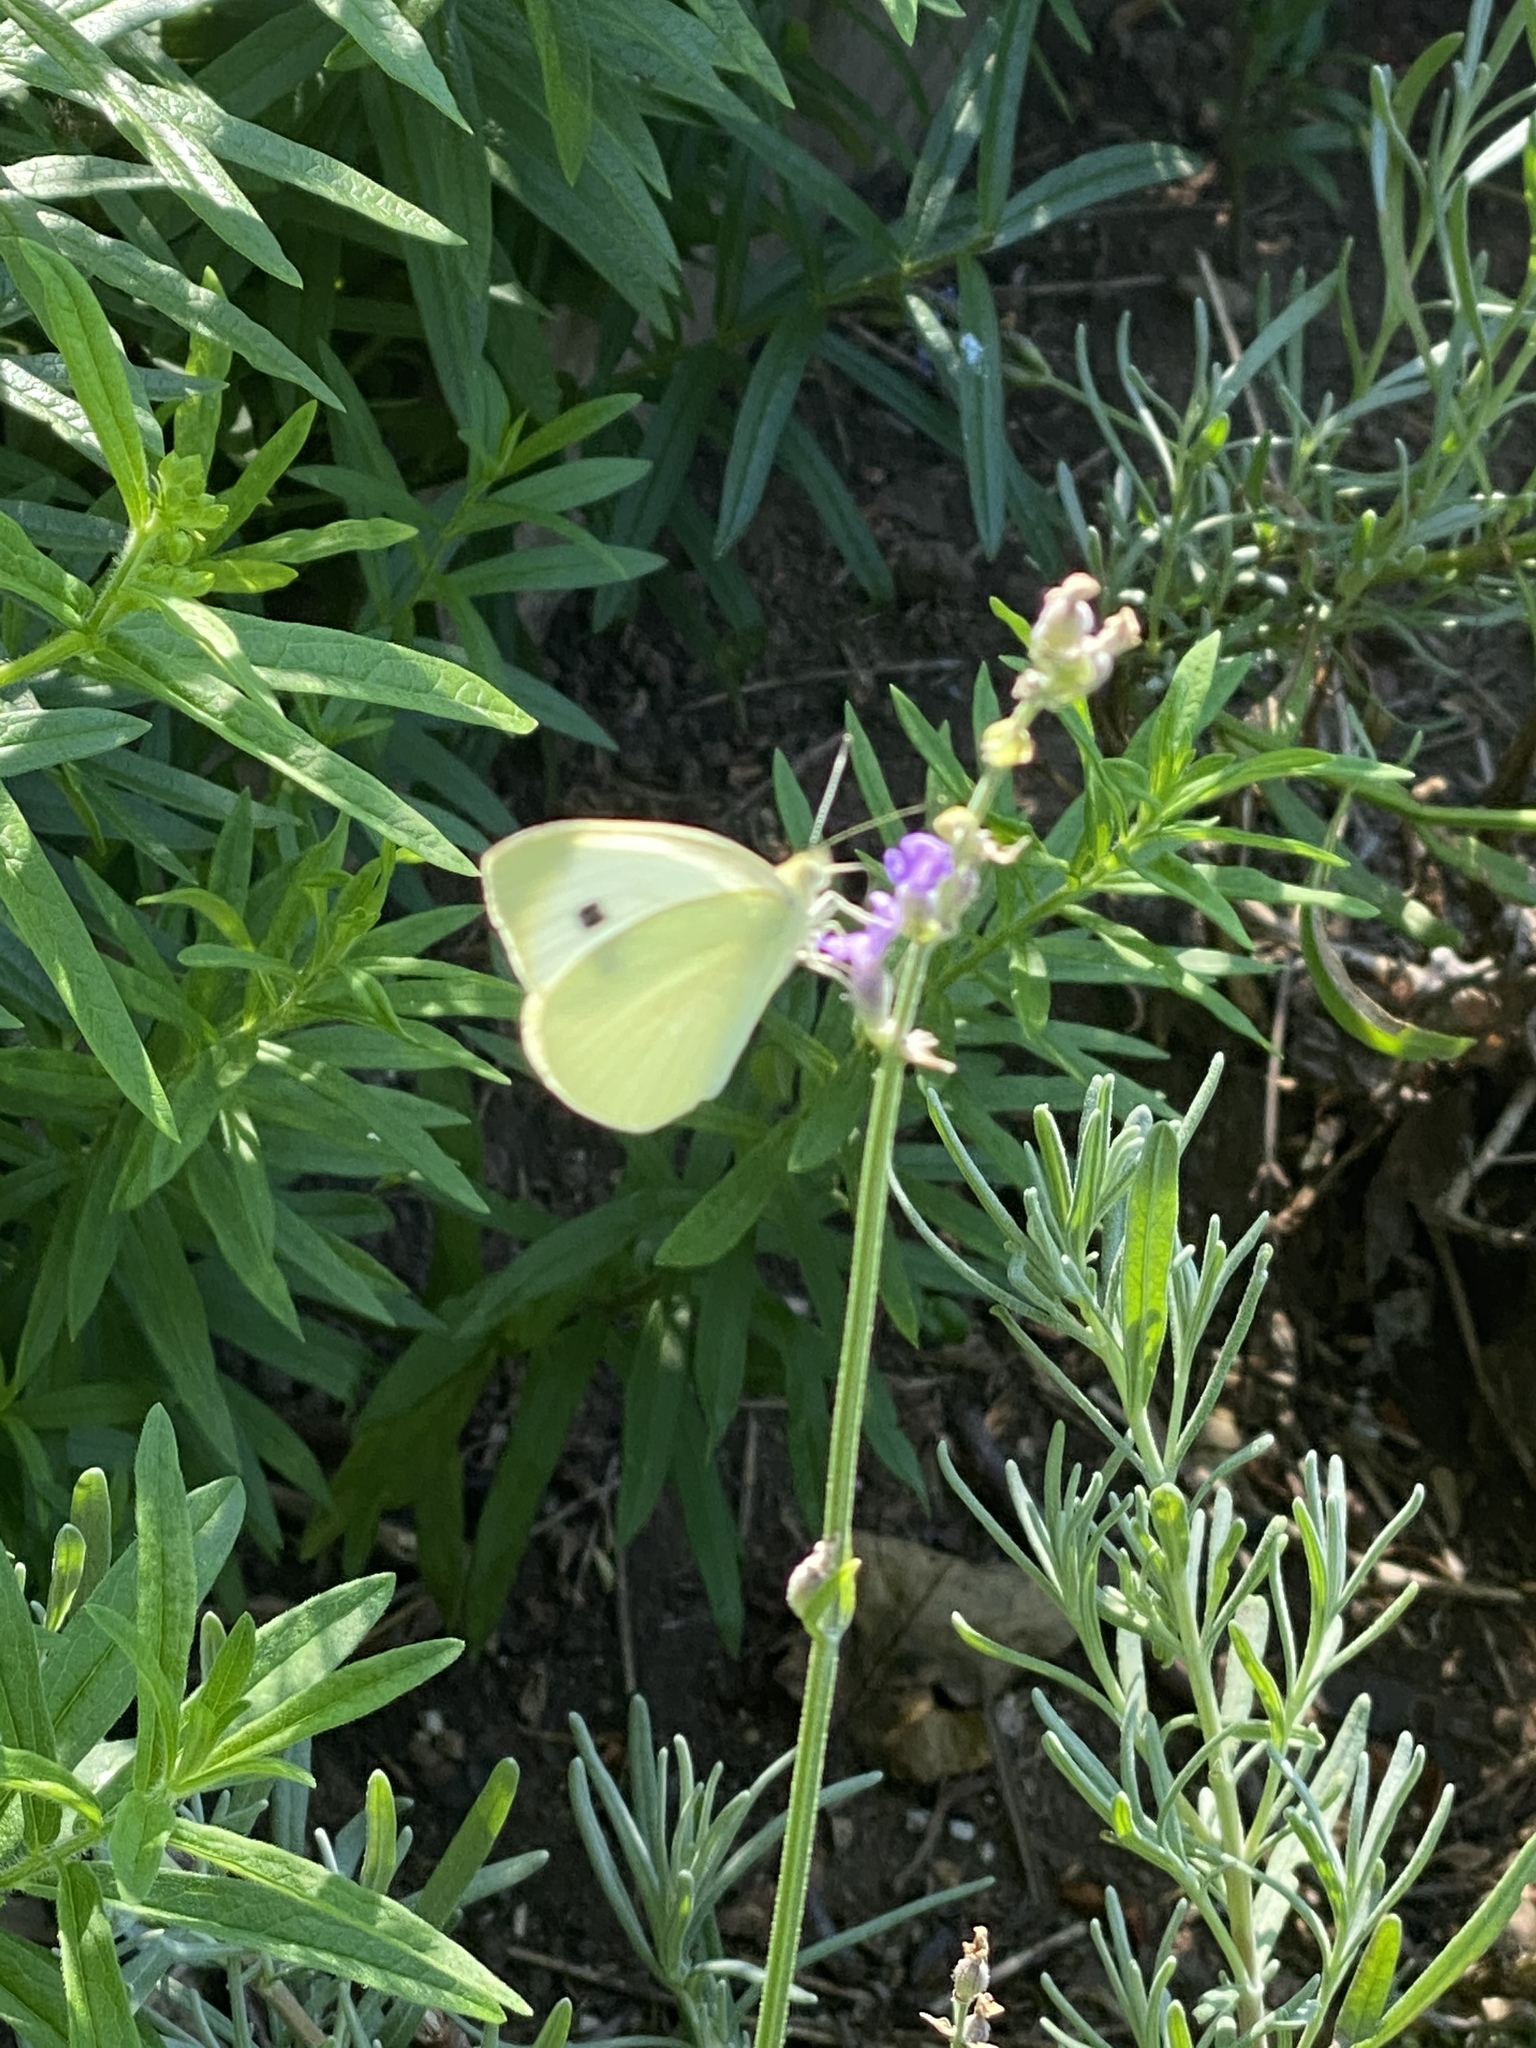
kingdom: Animalia
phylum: Arthropoda
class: Insecta
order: Lepidoptera
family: Pieridae
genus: Pieris
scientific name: Pieris rapae
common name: Small white
